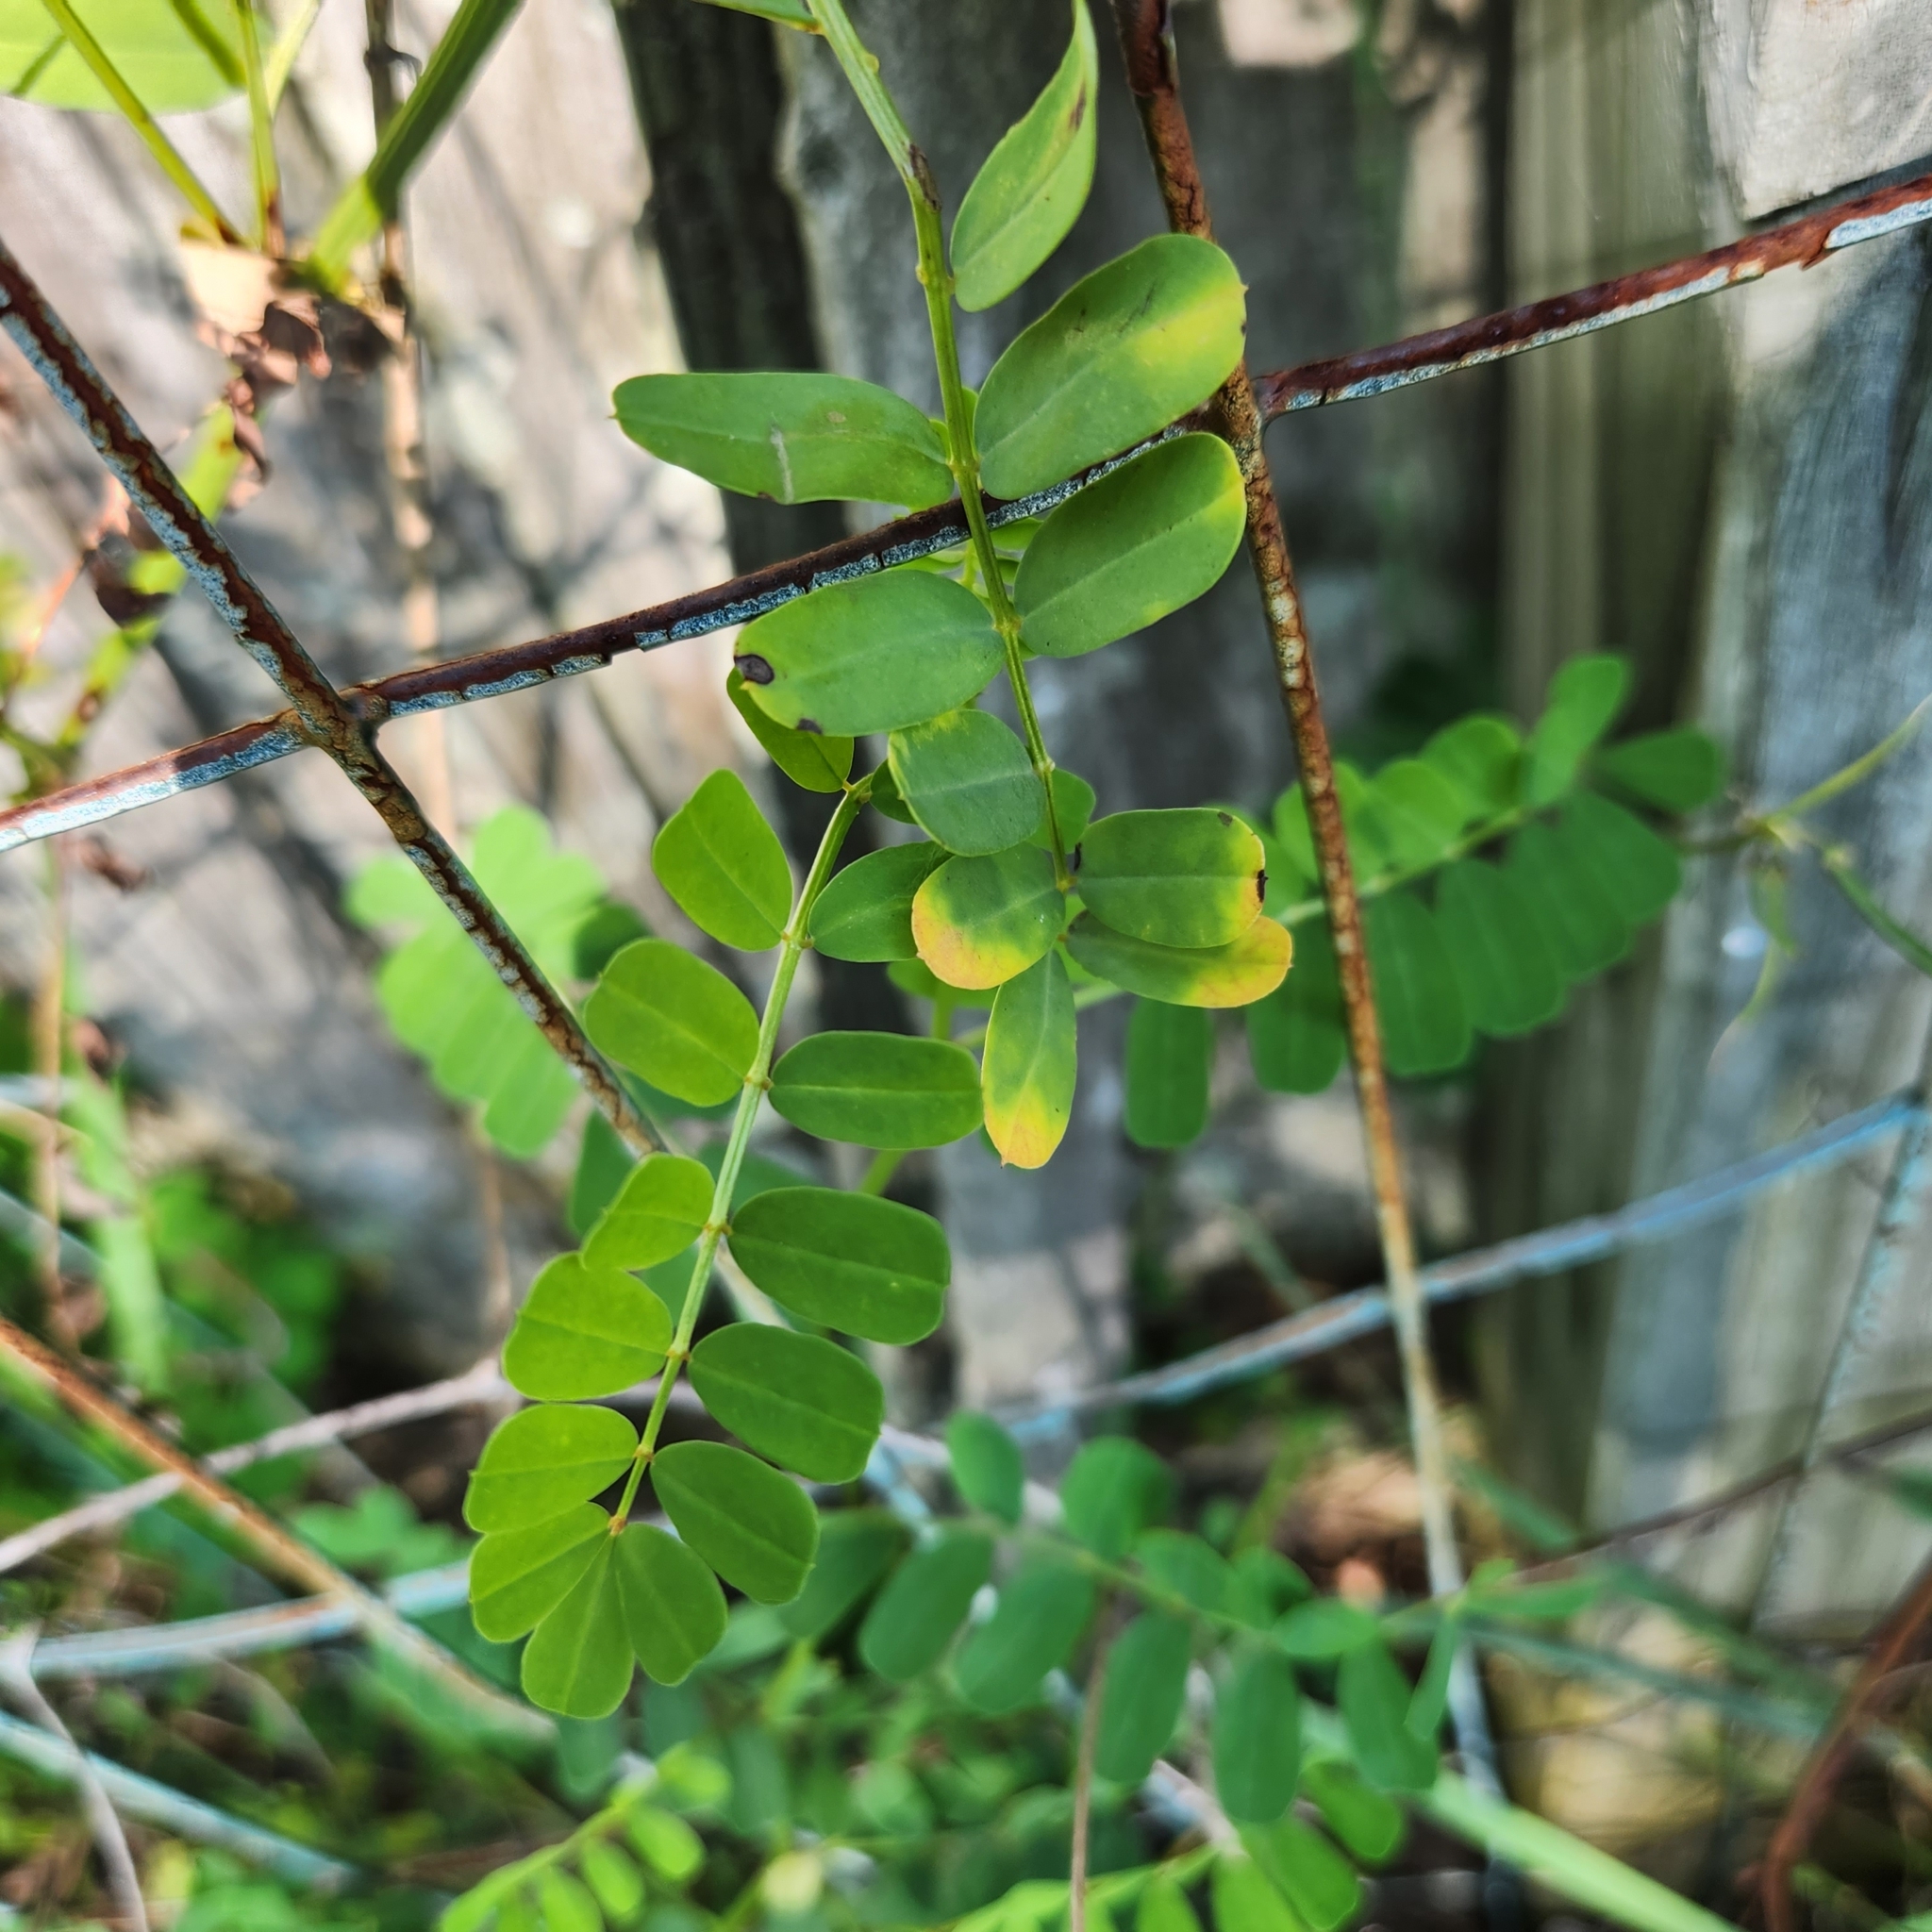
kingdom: Plantae
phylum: Tracheophyta
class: Magnoliopsida
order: Fabales
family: Fabaceae
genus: Coronilla
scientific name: Coronilla varia
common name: Crownvetch
